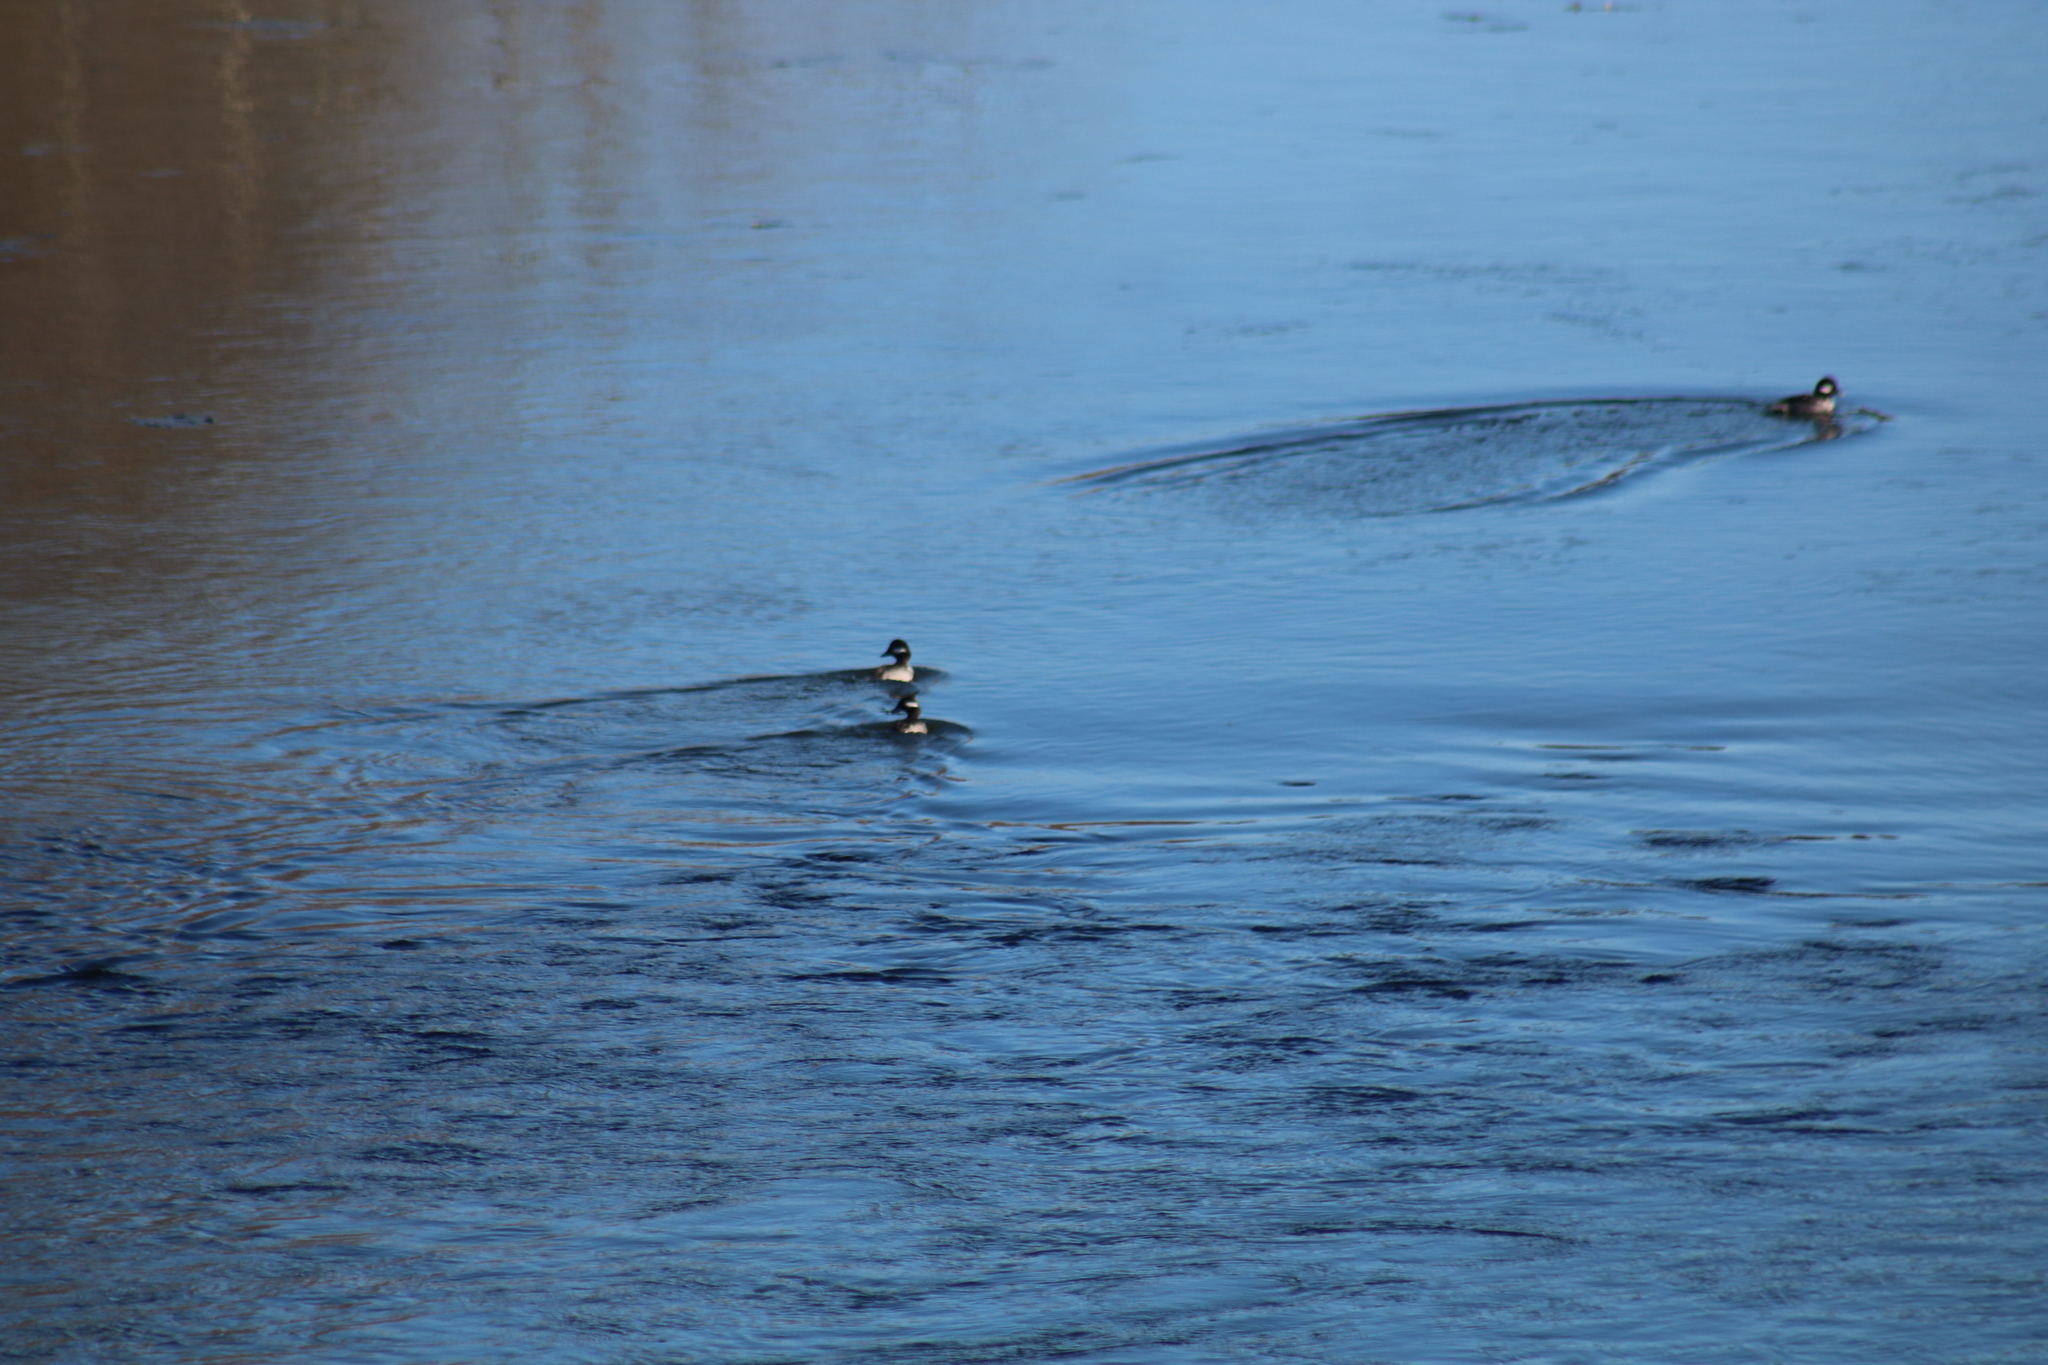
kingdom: Animalia
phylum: Chordata
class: Aves
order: Anseriformes
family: Anatidae
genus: Bucephala
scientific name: Bucephala albeola
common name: Bufflehead
